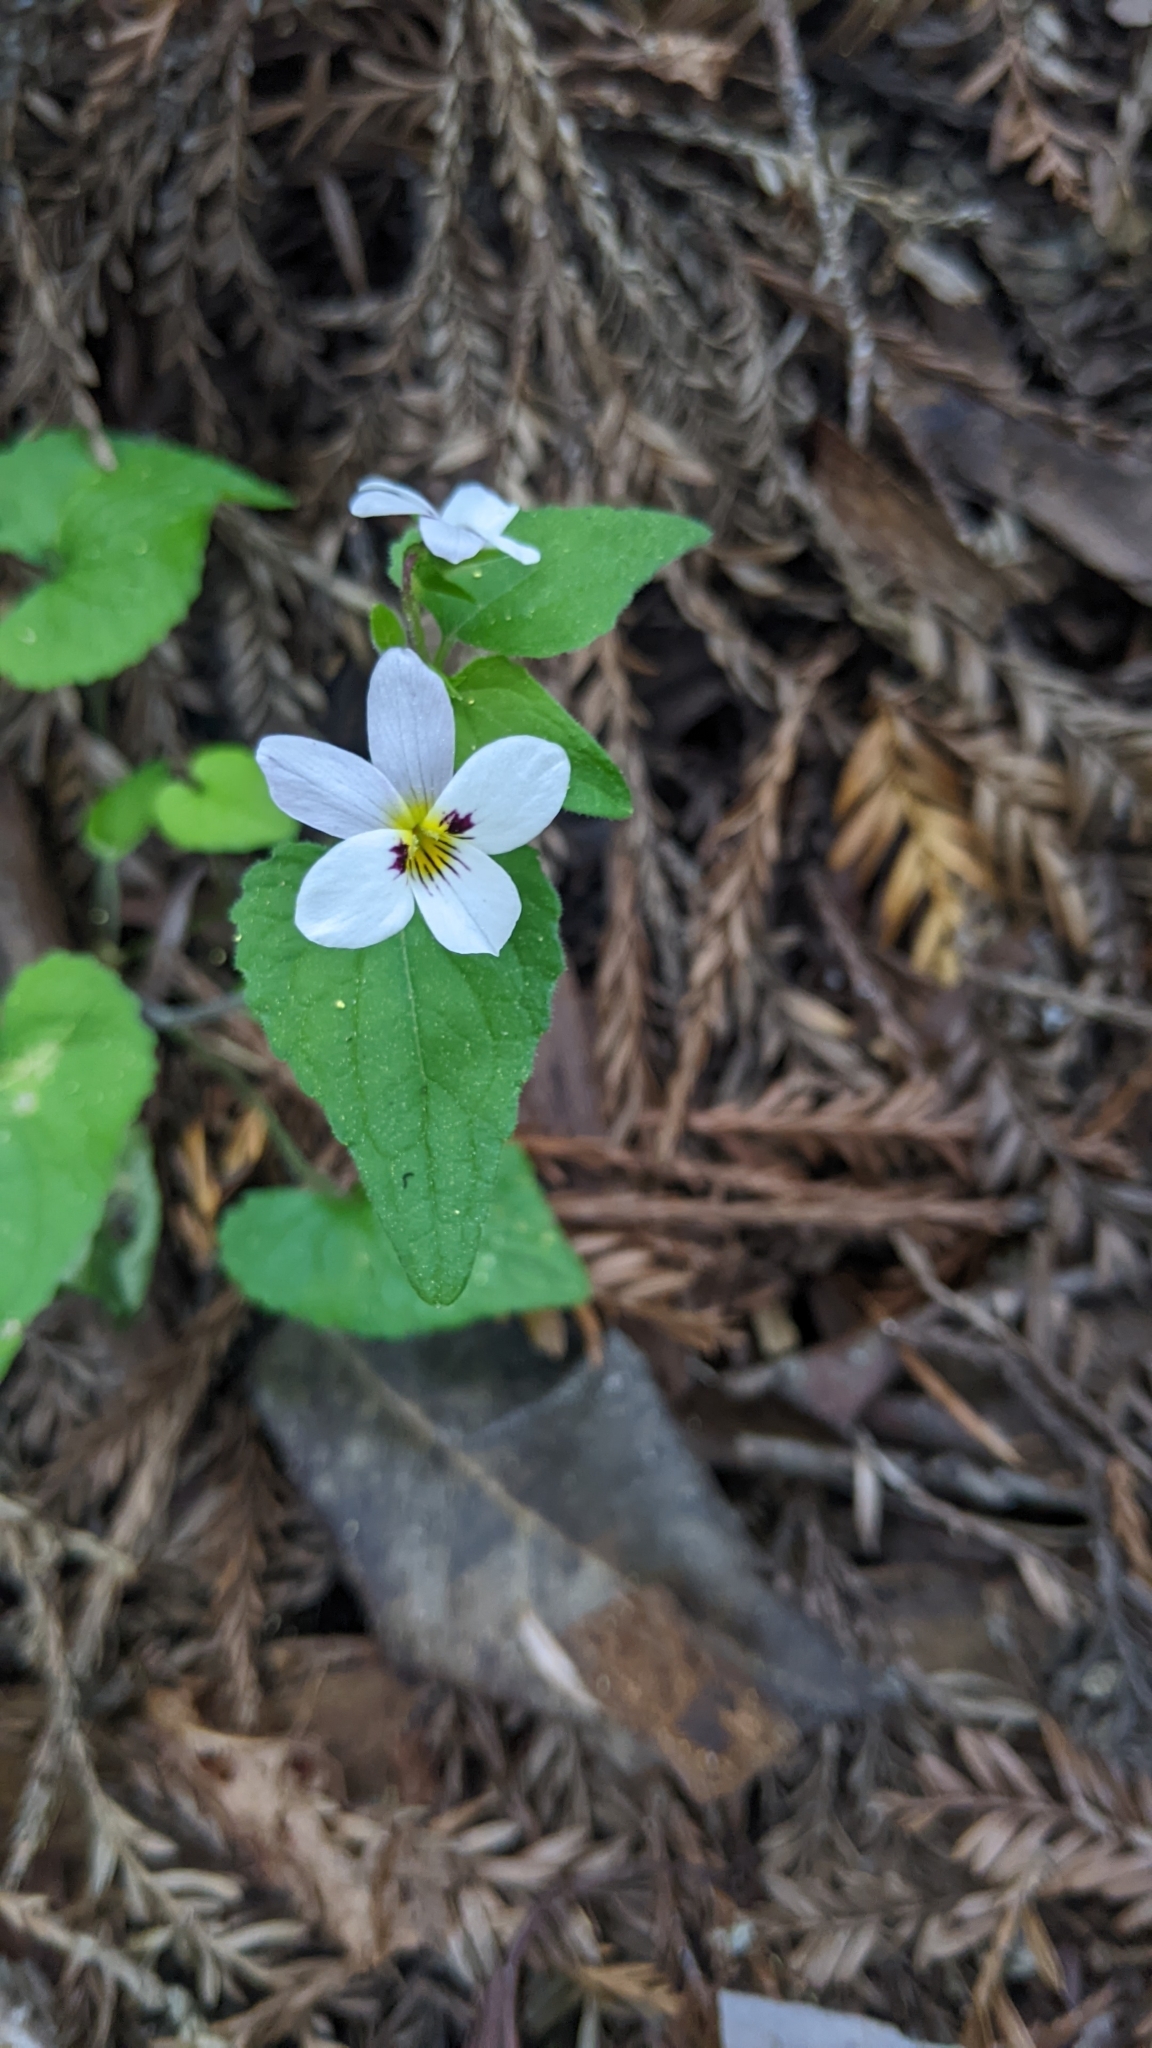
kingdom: Plantae
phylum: Tracheophyta
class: Magnoliopsida
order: Malpighiales
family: Violaceae
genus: Viola
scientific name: Viola ocellata
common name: Western heart's ease
